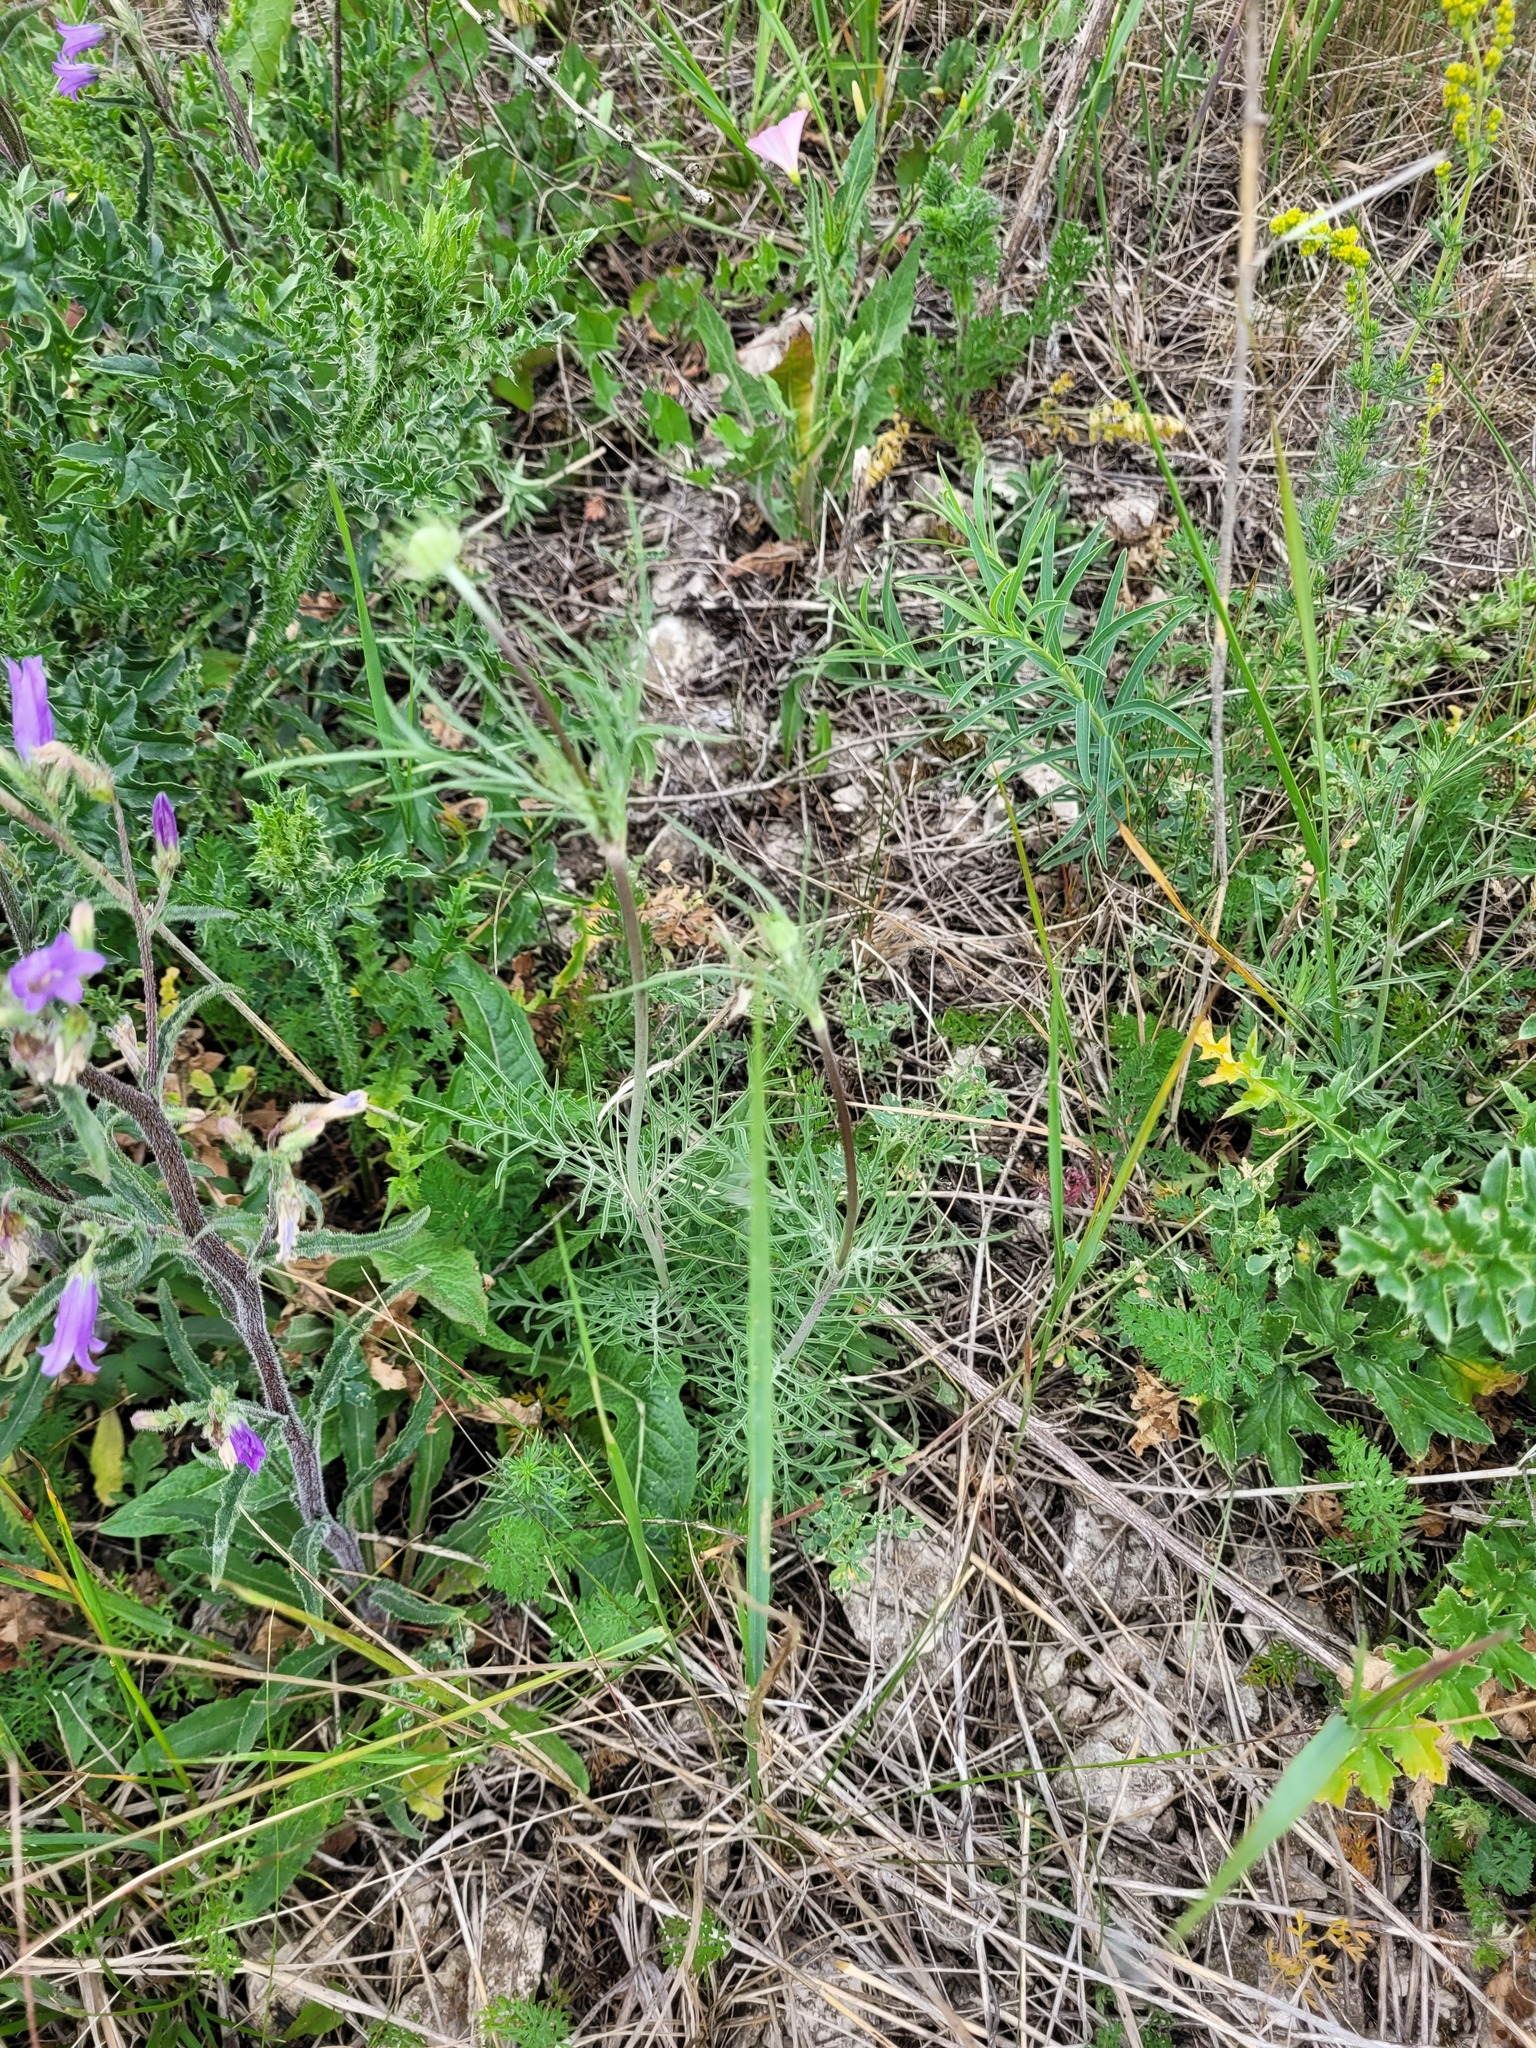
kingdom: Plantae
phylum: Tracheophyta
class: Magnoliopsida
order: Dipsacales
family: Caprifoliaceae
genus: Scabiosa
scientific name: Scabiosa ochroleuca
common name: Cream pincushions
